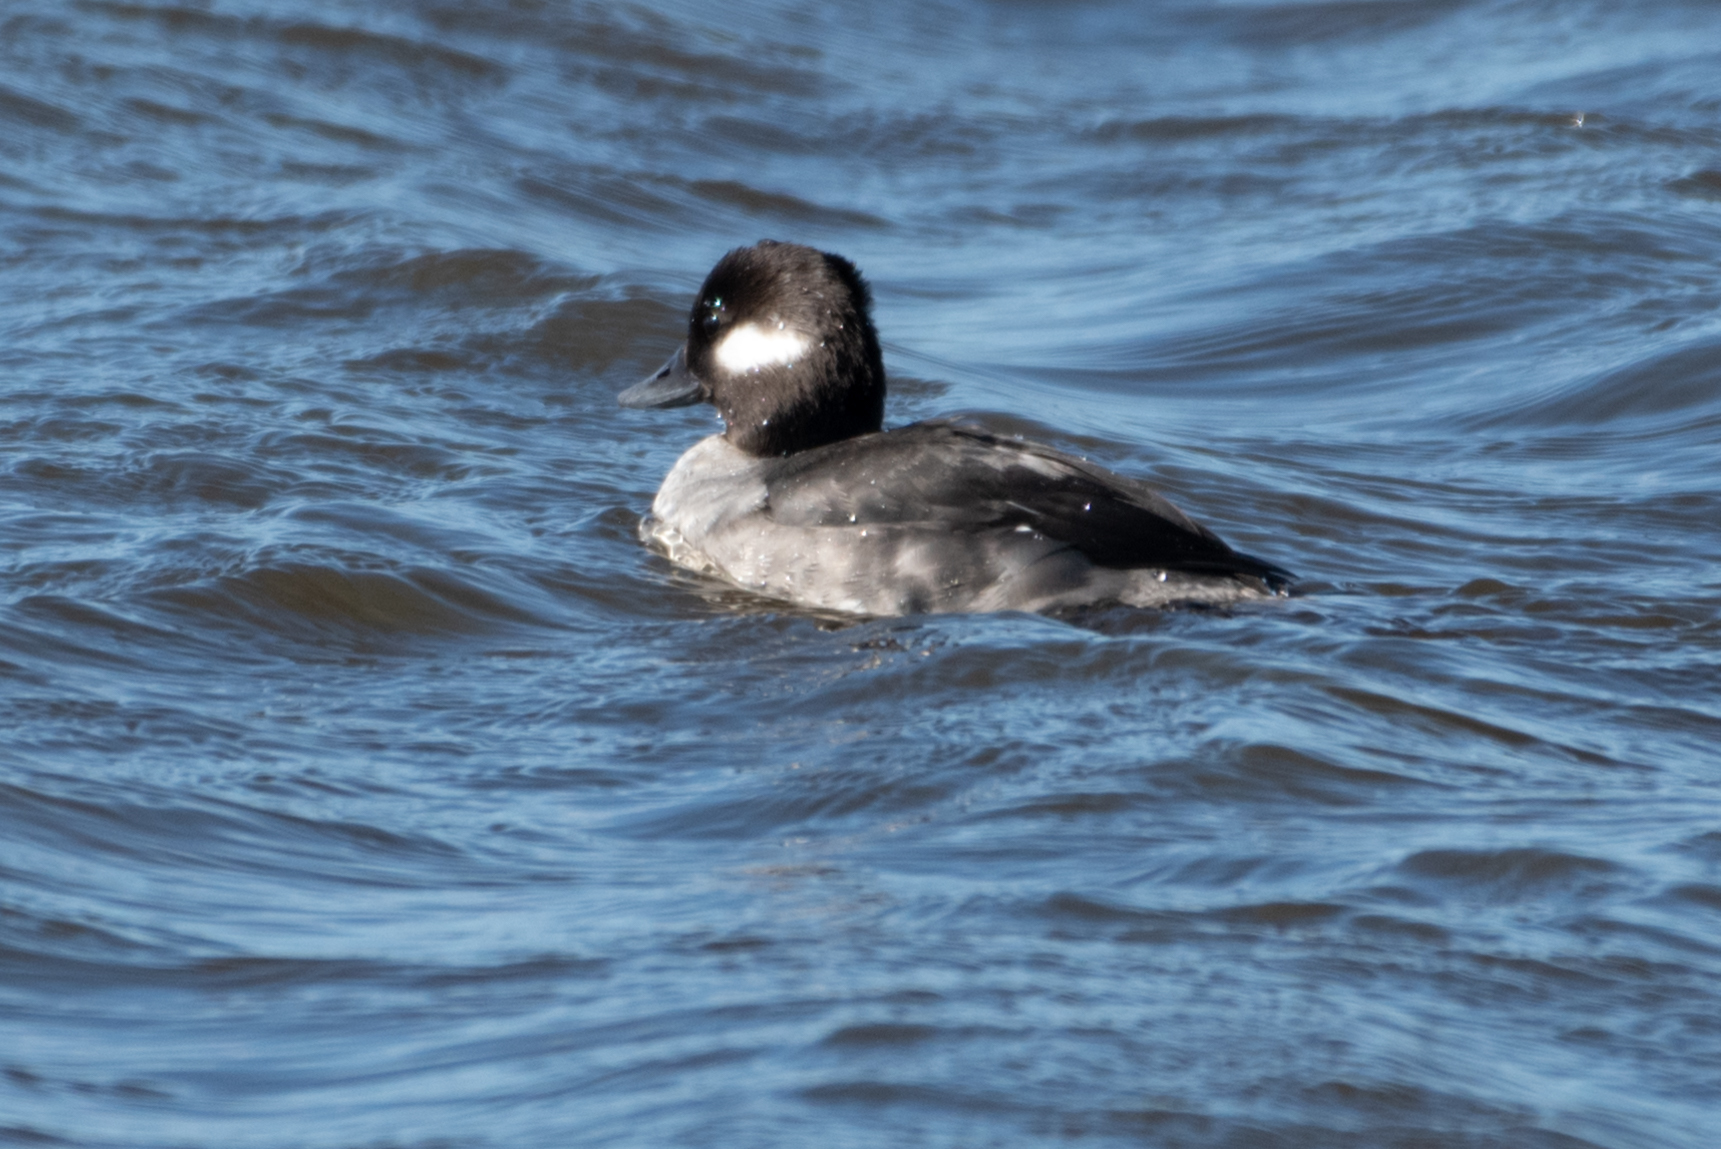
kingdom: Animalia
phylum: Chordata
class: Aves
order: Anseriformes
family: Anatidae
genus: Bucephala
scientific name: Bucephala albeola
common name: Bufflehead
